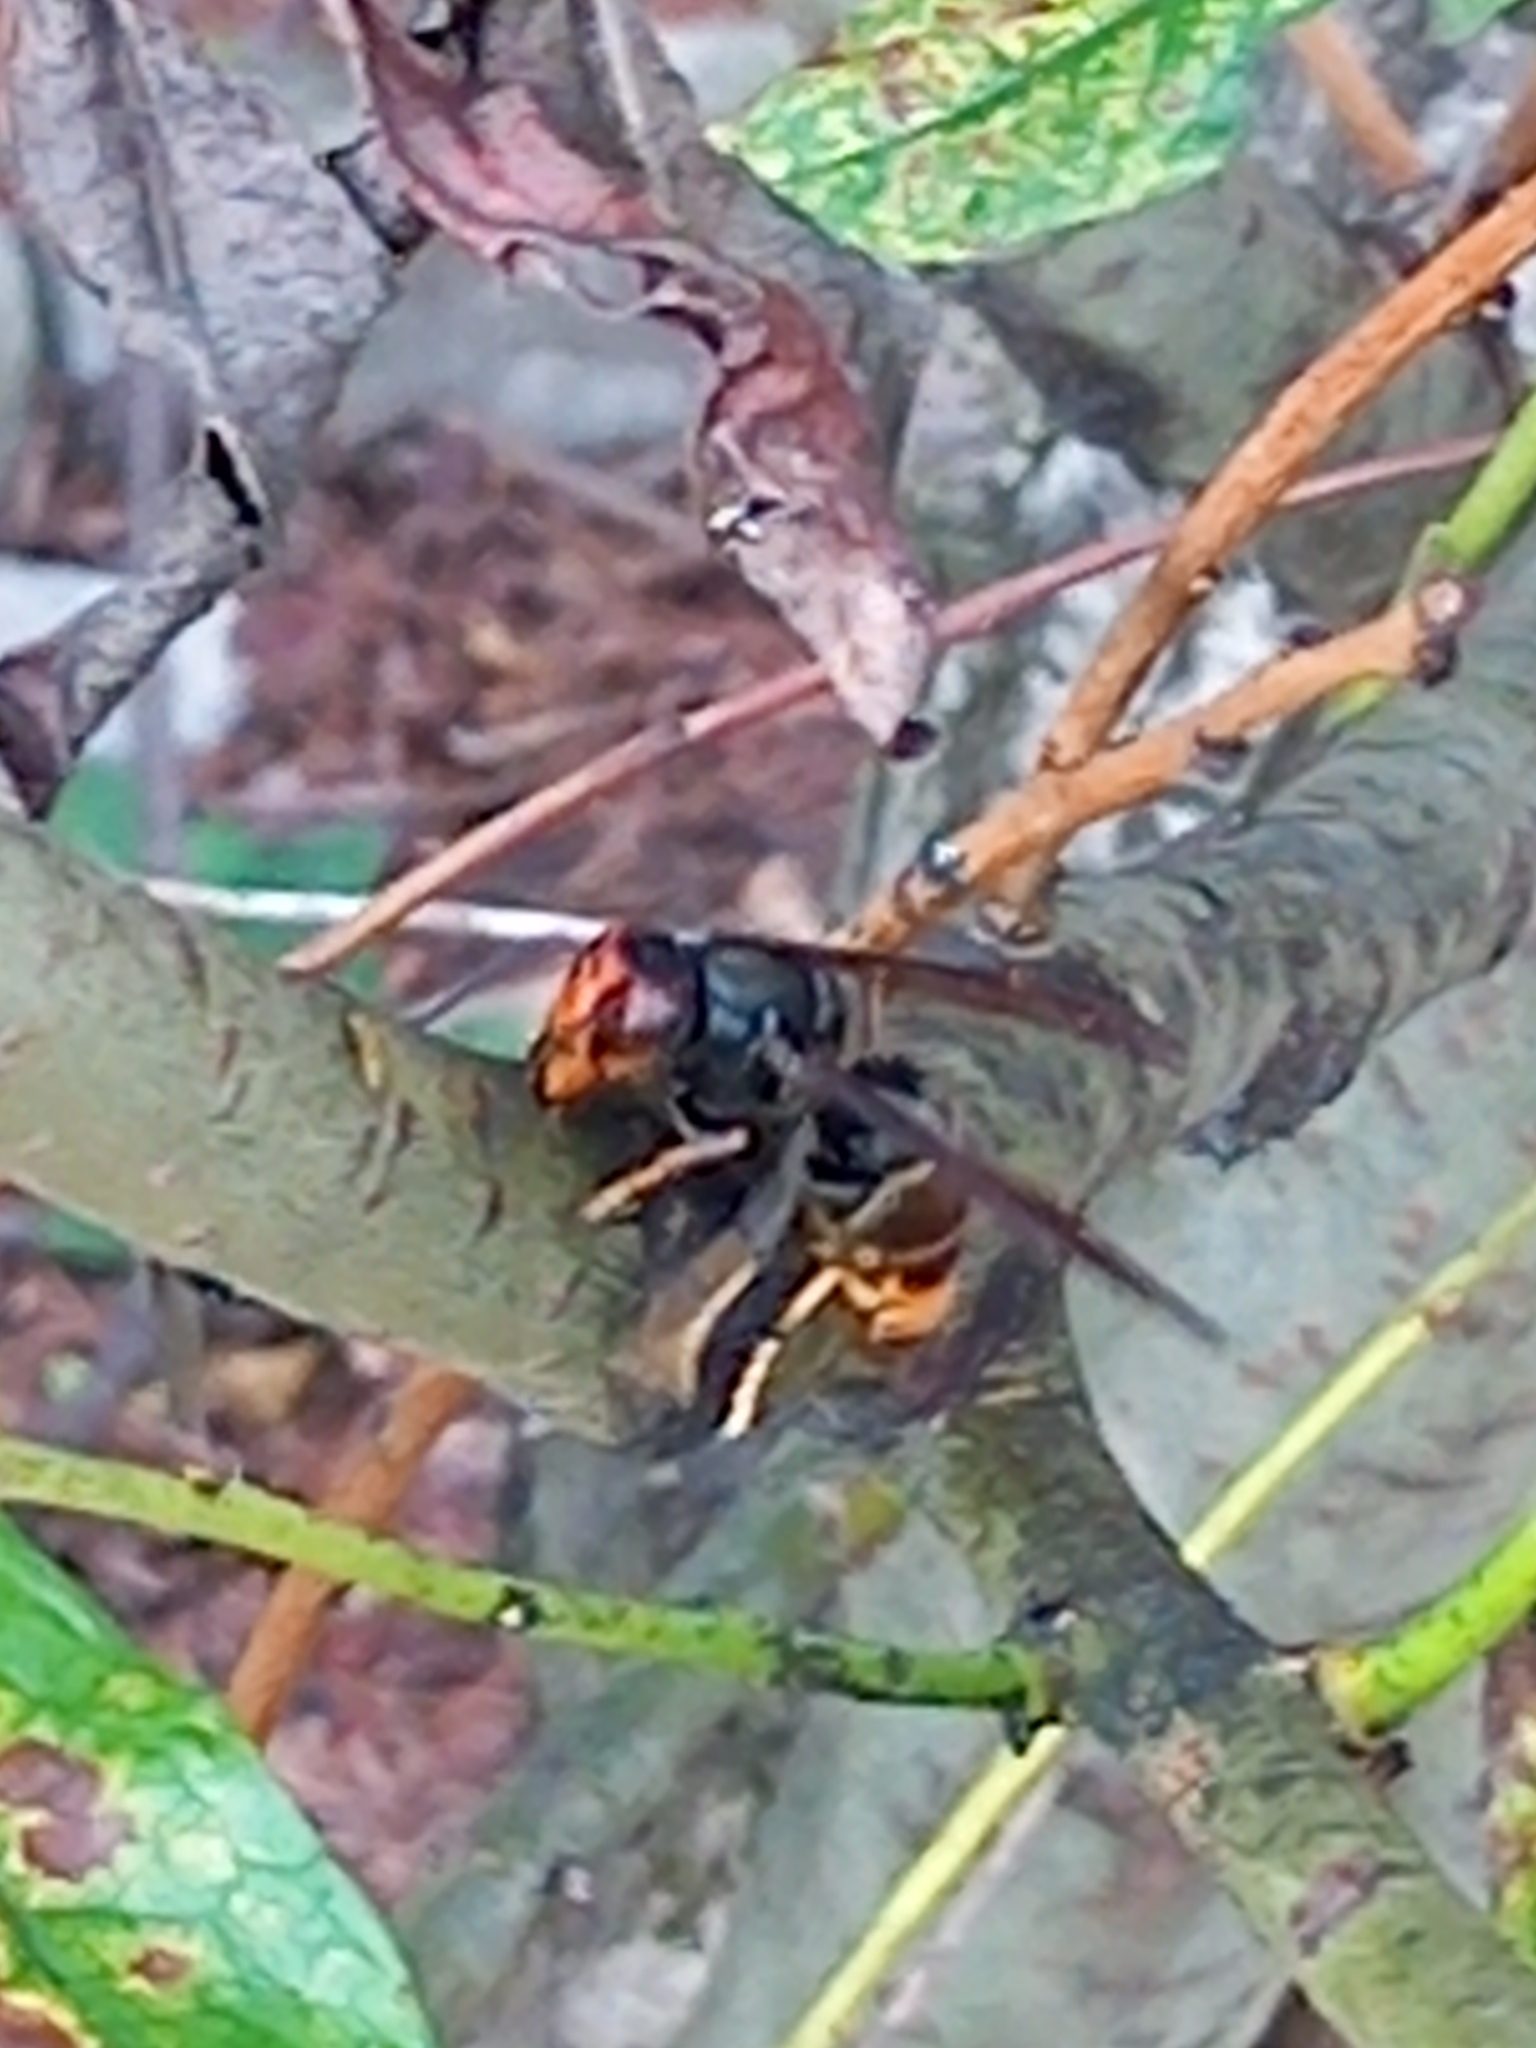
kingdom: Animalia
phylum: Arthropoda
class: Insecta
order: Hymenoptera
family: Vespidae
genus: Vespa
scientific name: Vespa velutina
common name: Asian hornet
